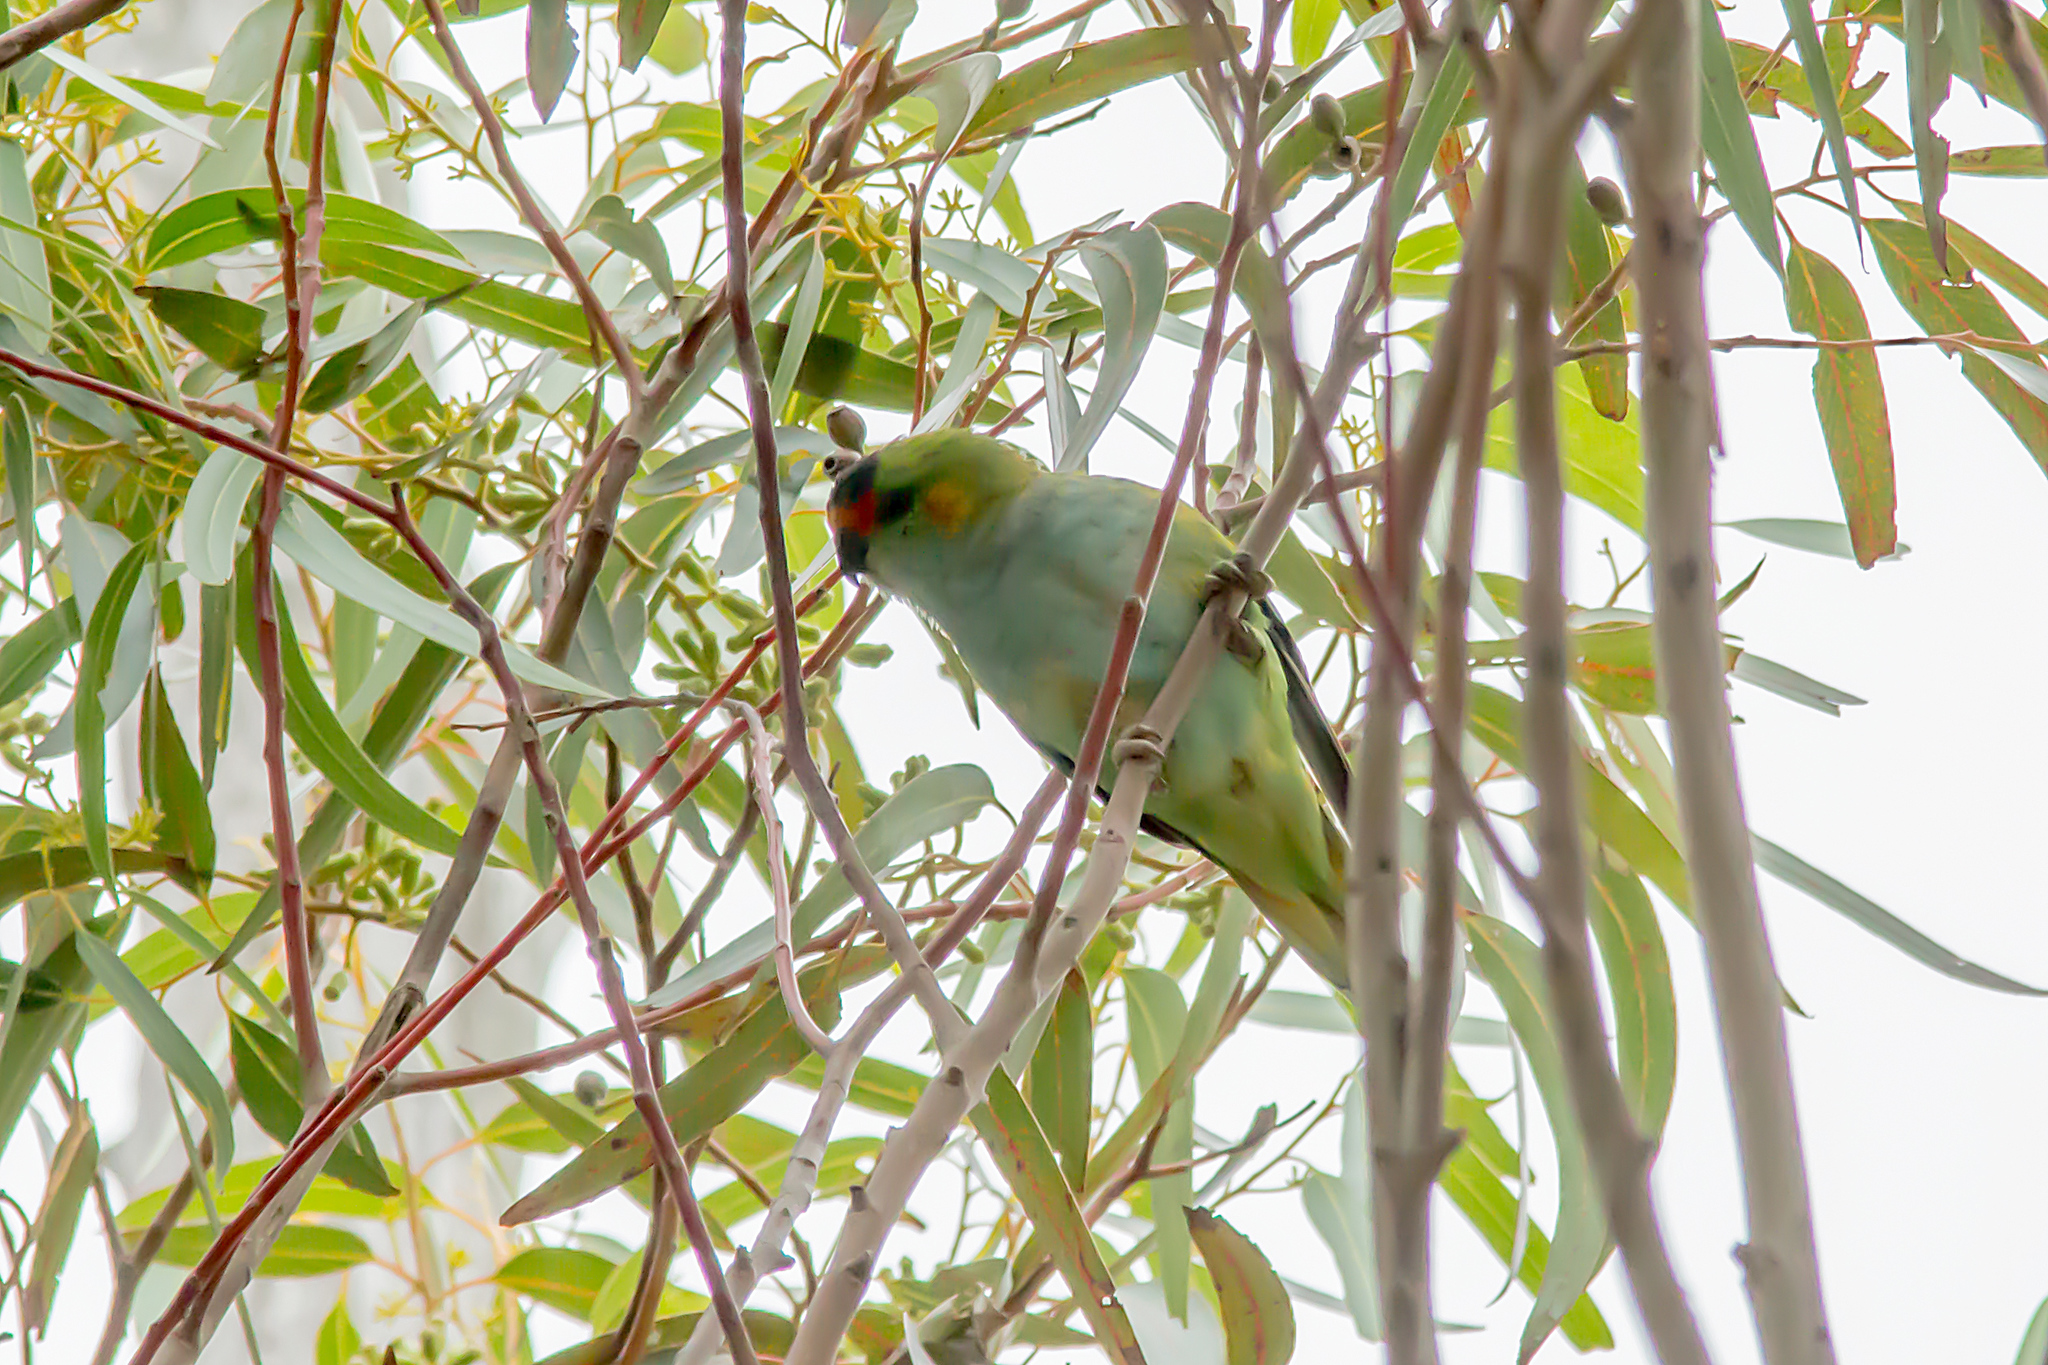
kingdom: Animalia
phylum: Chordata
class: Aves
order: Psittaciformes
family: Psittaculidae
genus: Parvipsitta
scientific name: Parvipsitta porphyrocephala
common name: Purple-crowned lorikeet
